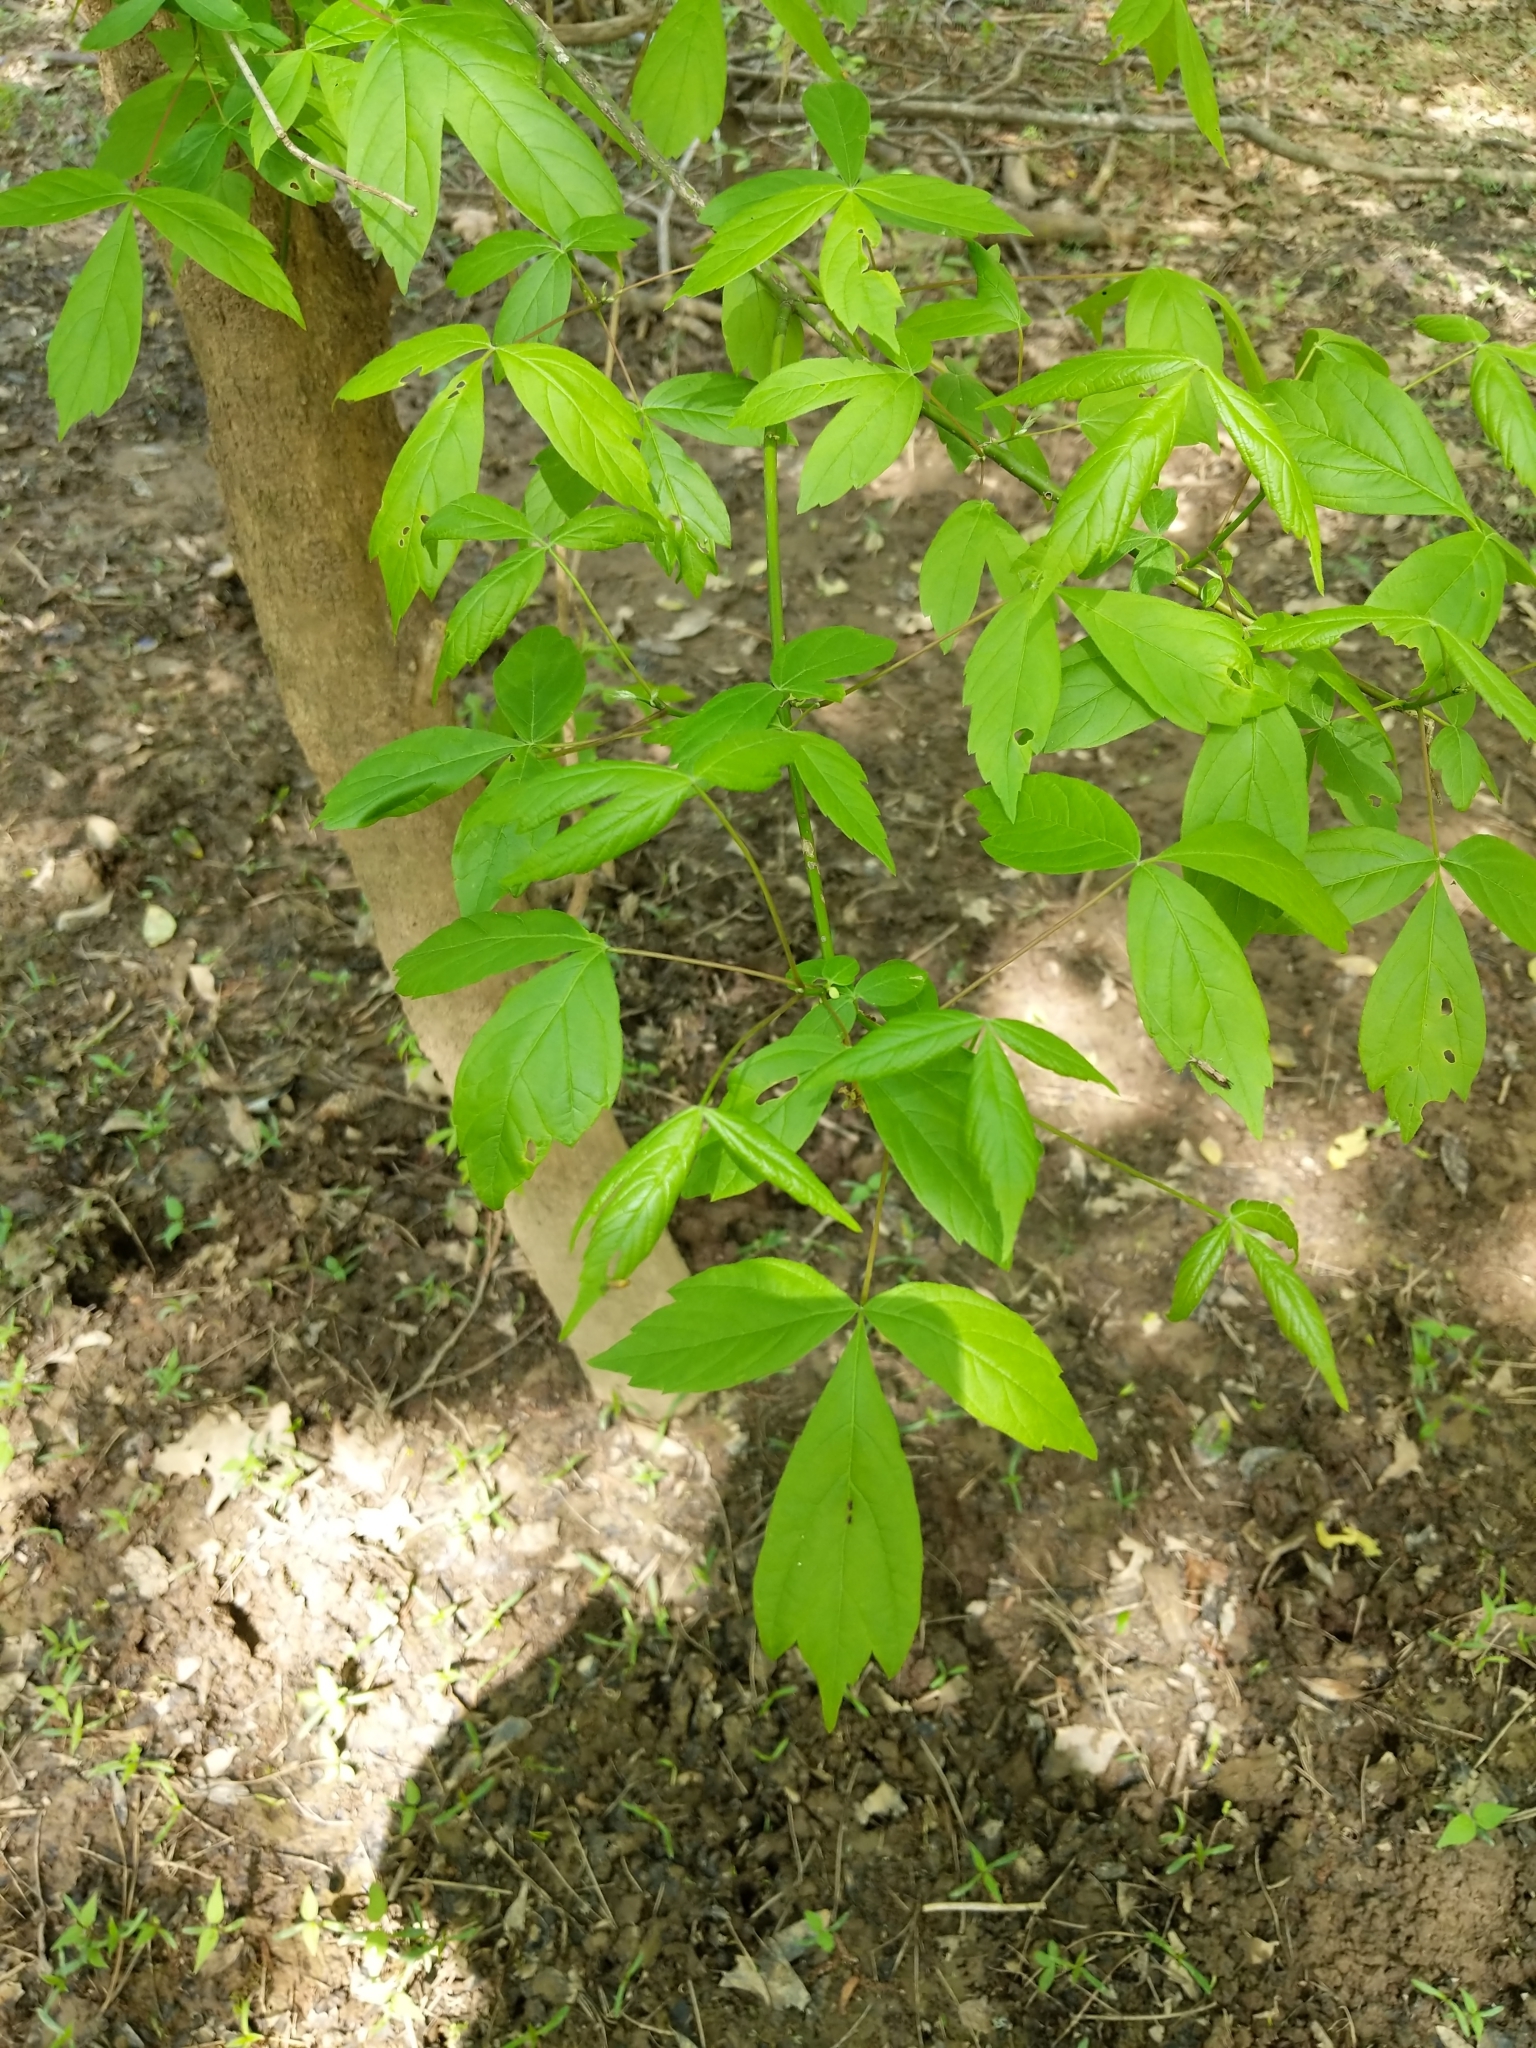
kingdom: Plantae
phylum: Tracheophyta
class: Magnoliopsida
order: Sapindales
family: Sapindaceae
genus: Acer
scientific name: Acer negundo
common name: Ashleaf maple
